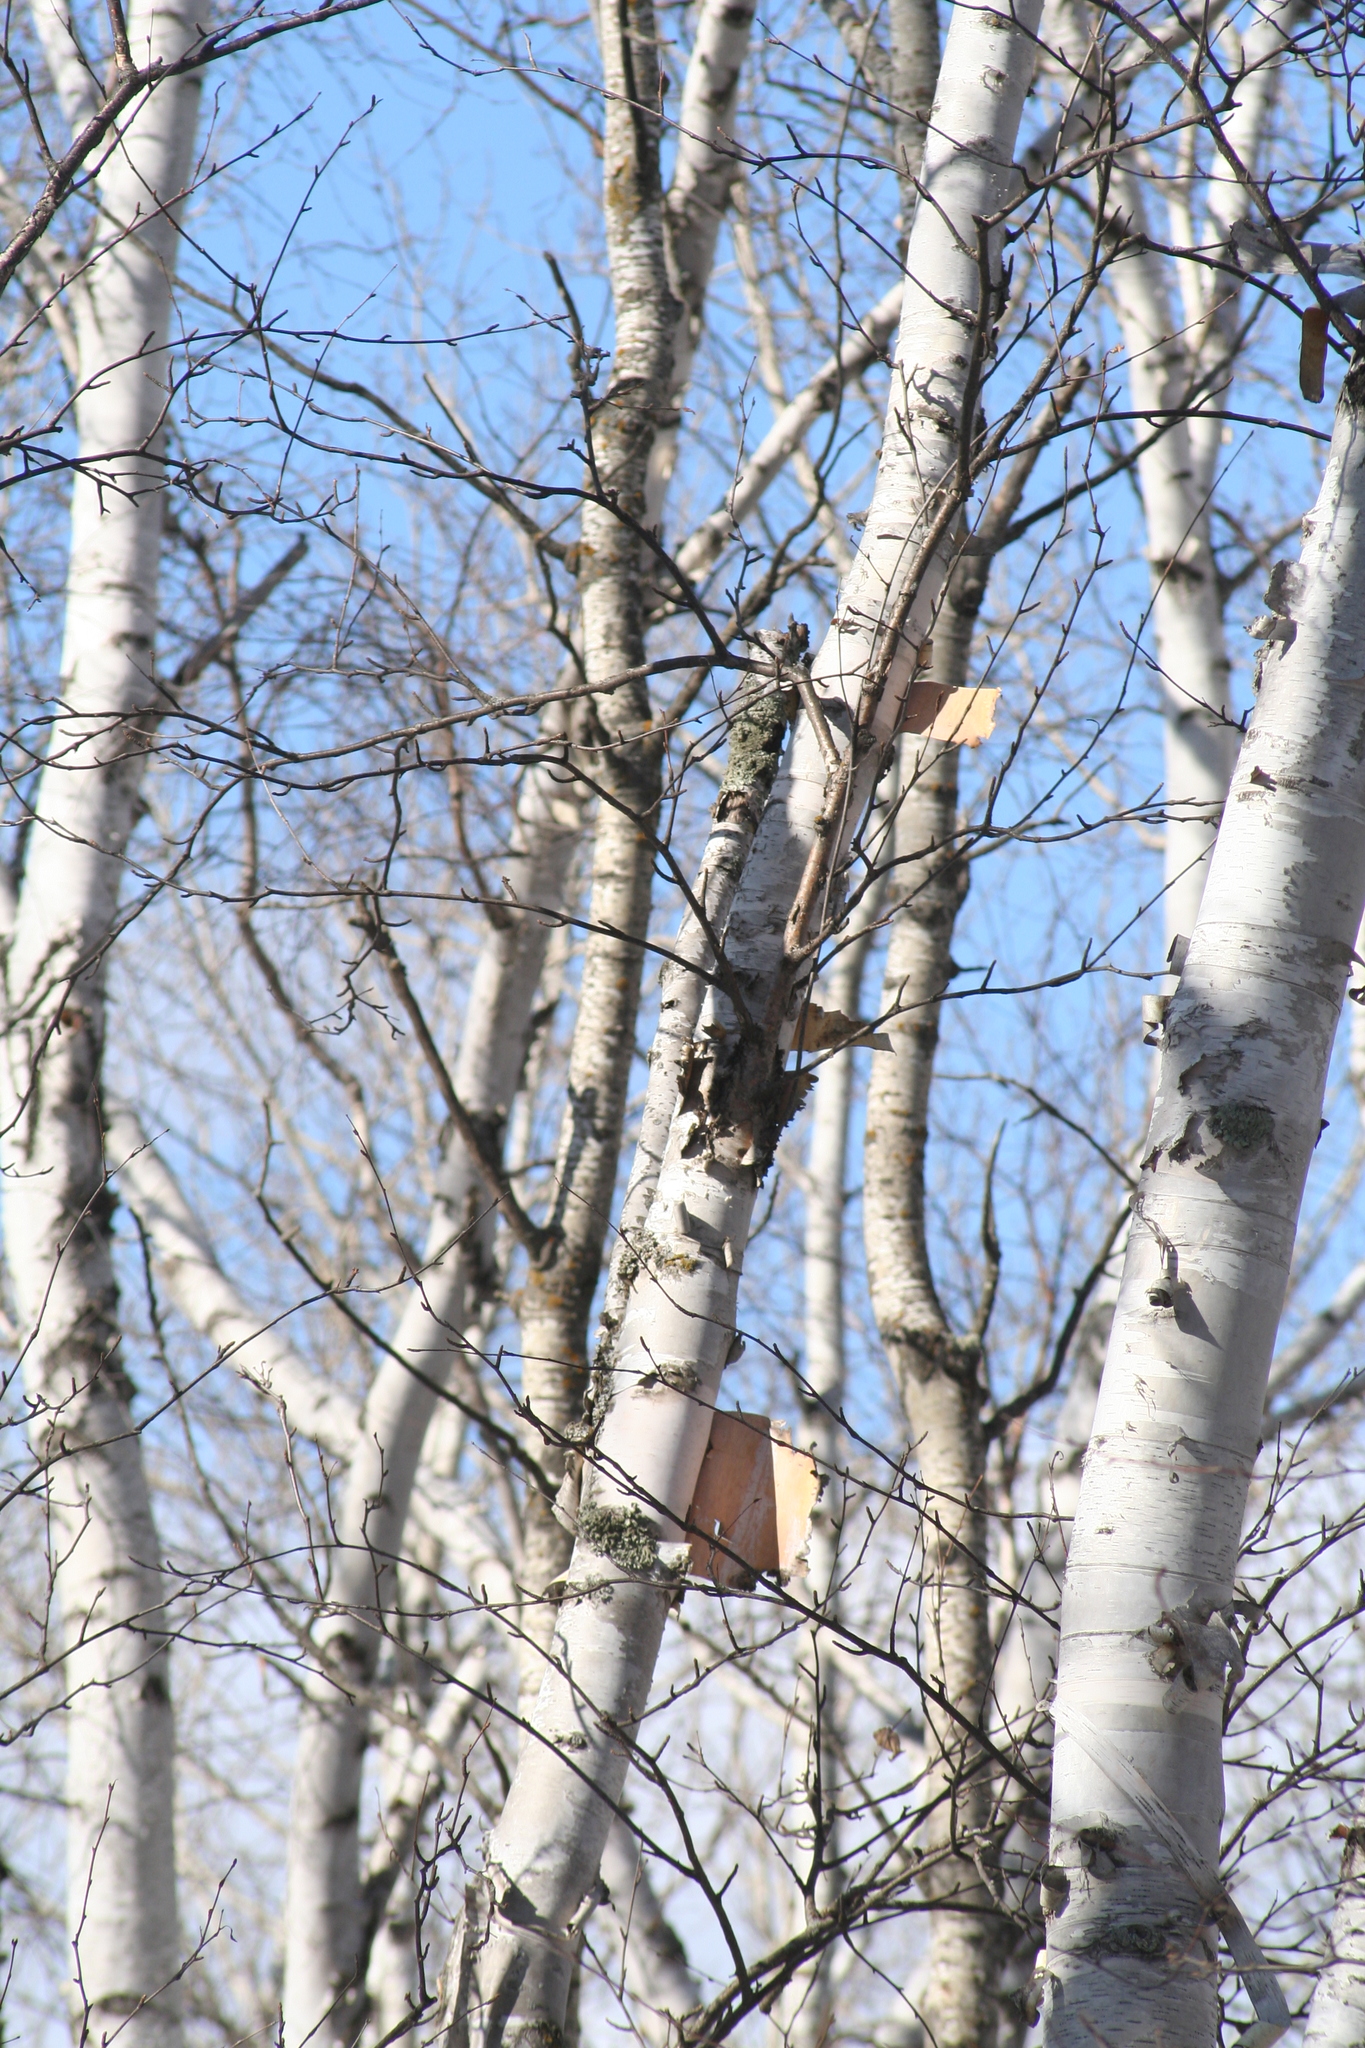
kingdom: Plantae
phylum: Tracheophyta
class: Magnoliopsida
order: Fagales
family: Betulaceae
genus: Betula
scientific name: Betula papyrifera
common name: Paper birch
